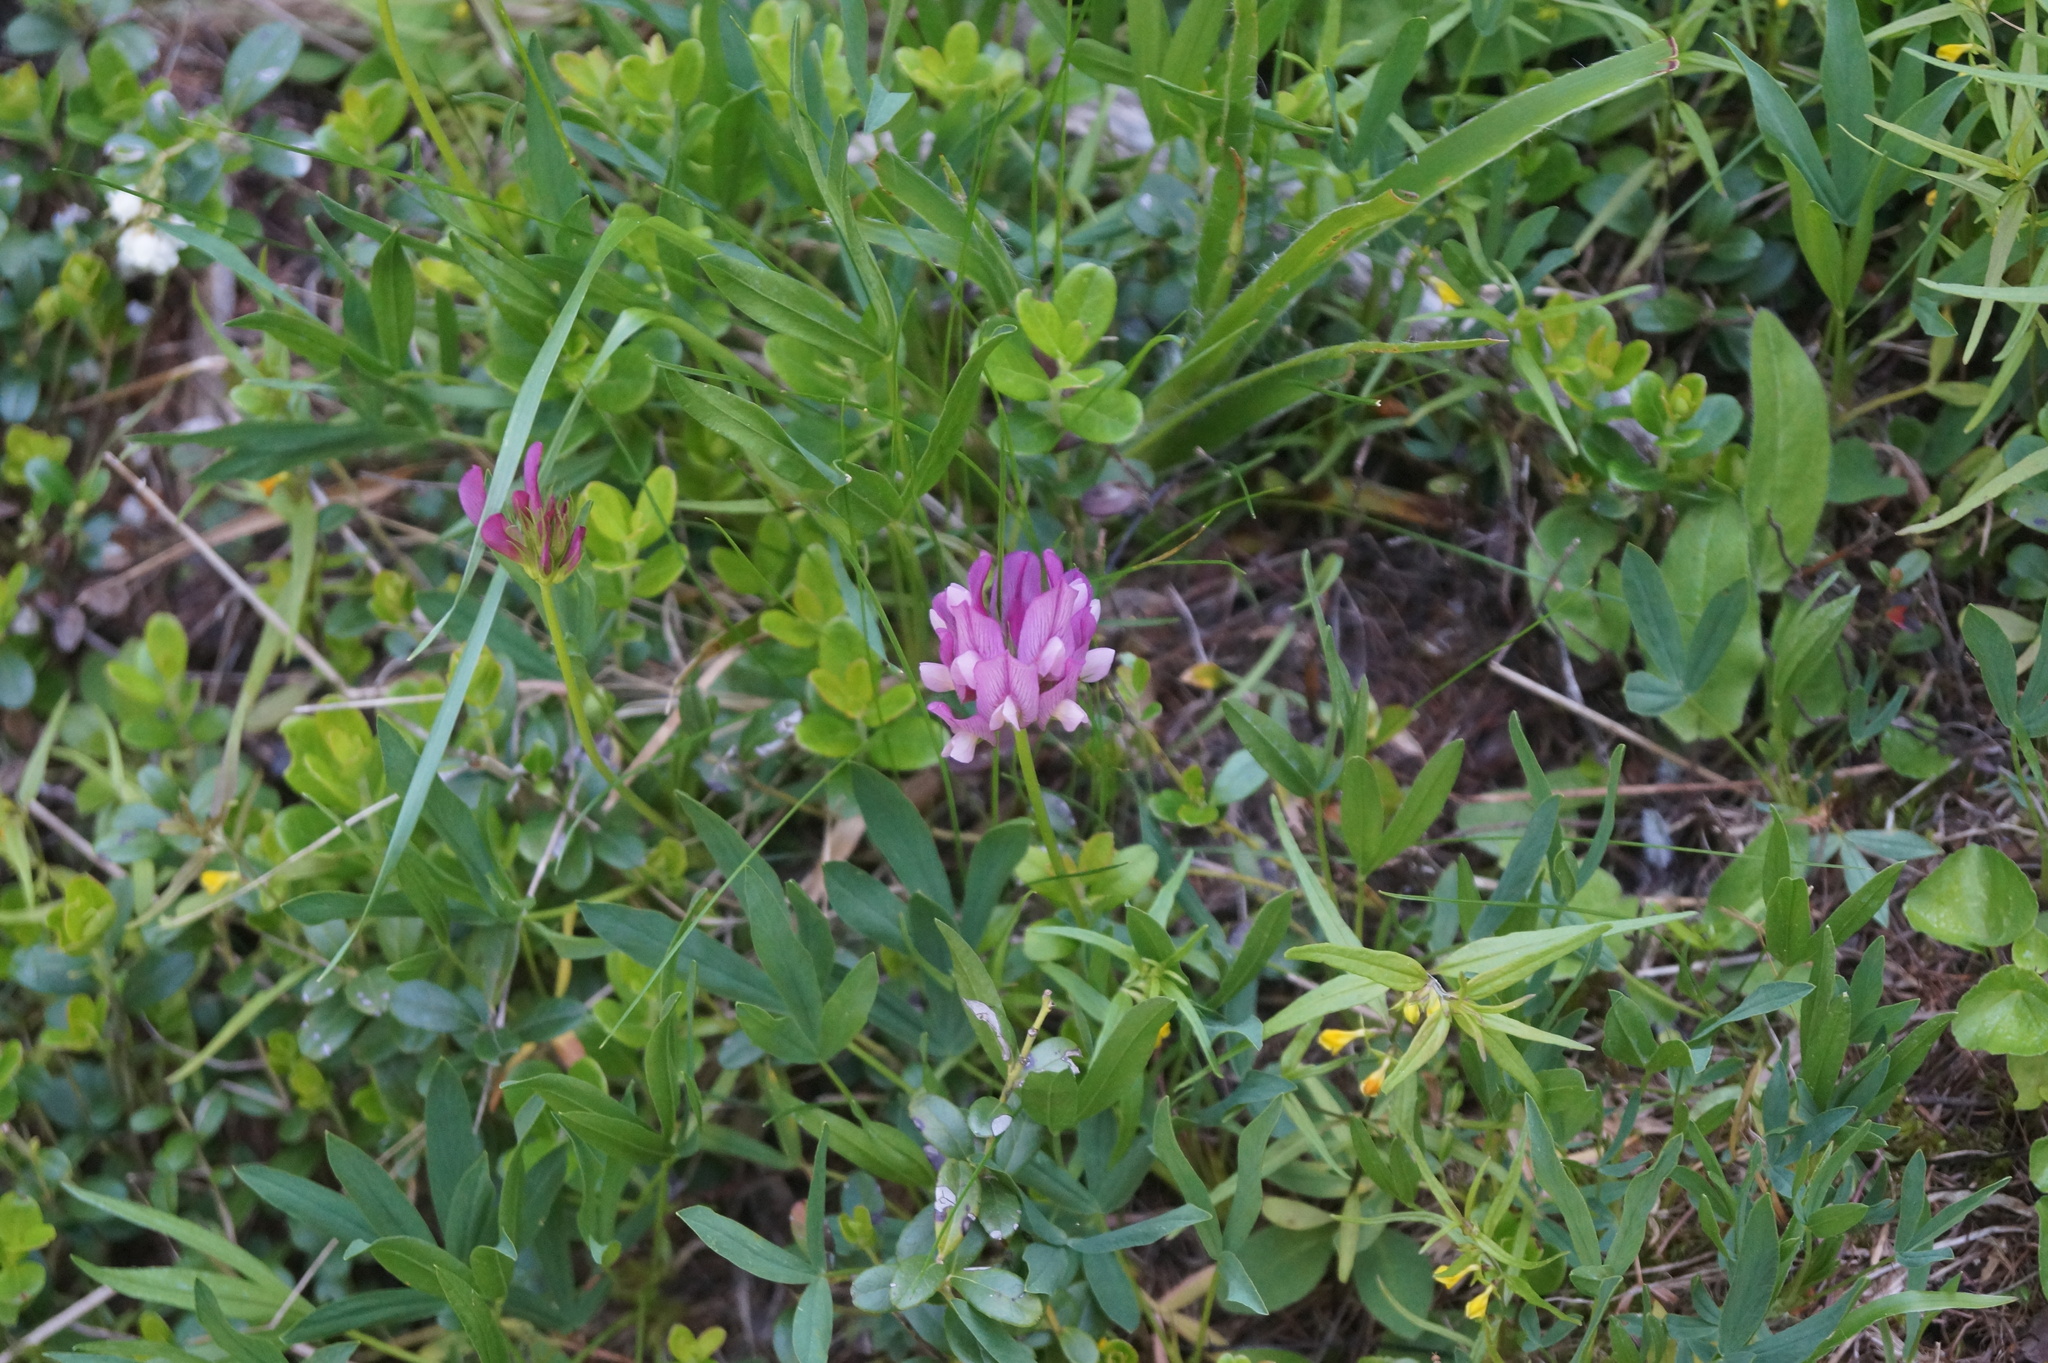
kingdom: Plantae
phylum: Tracheophyta
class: Magnoliopsida
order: Fabales
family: Fabaceae
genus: Trifolium
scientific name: Trifolium alpinum
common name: Alpine clover
